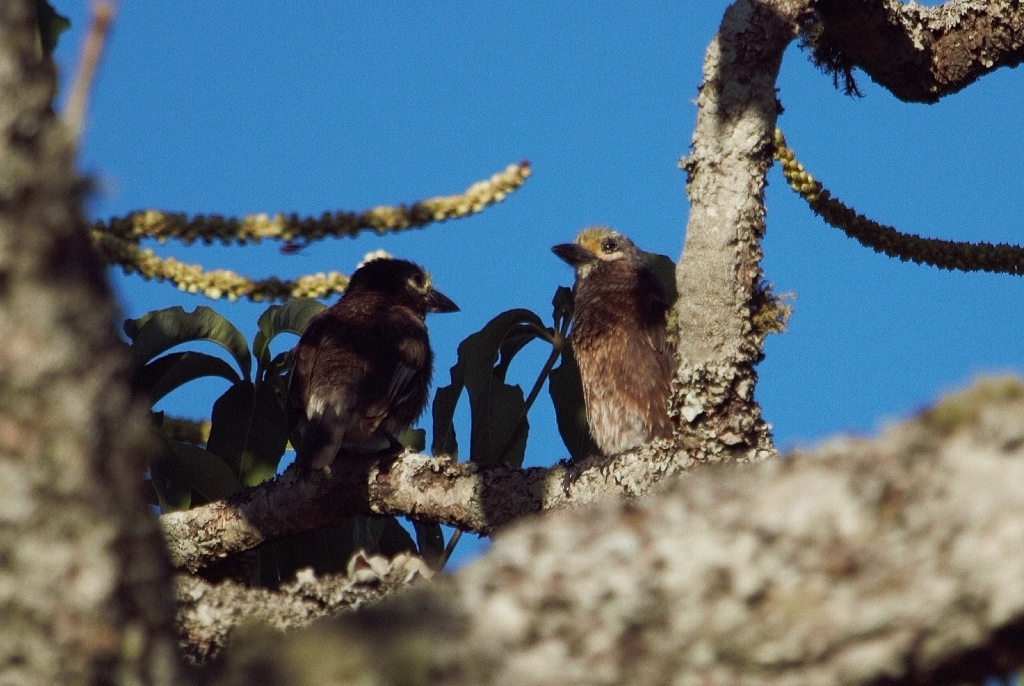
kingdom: Animalia
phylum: Chordata
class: Aves
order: Piciformes
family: Lybiidae
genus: Stactolaema
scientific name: Stactolaema whytii
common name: Whyte's barbet
